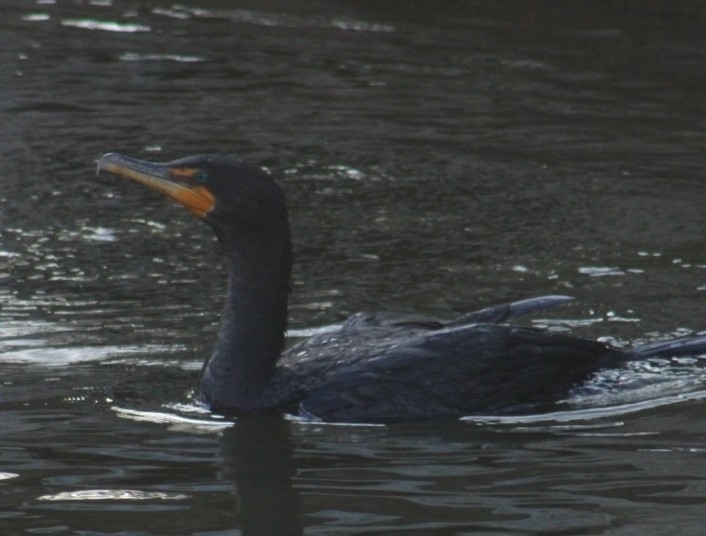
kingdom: Animalia
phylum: Chordata
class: Aves
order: Suliformes
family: Phalacrocoracidae
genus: Phalacrocorax
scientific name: Phalacrocorax auritus
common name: Double-crested cormorant
